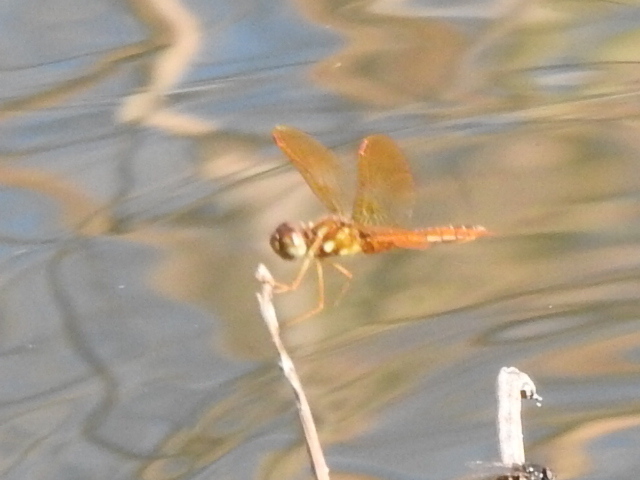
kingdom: Animalia
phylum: Arthropoda
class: Insecta
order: Odonata
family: Libellulidae
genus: Perithemis
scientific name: Perithemis tenera
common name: Eastern amberwing
